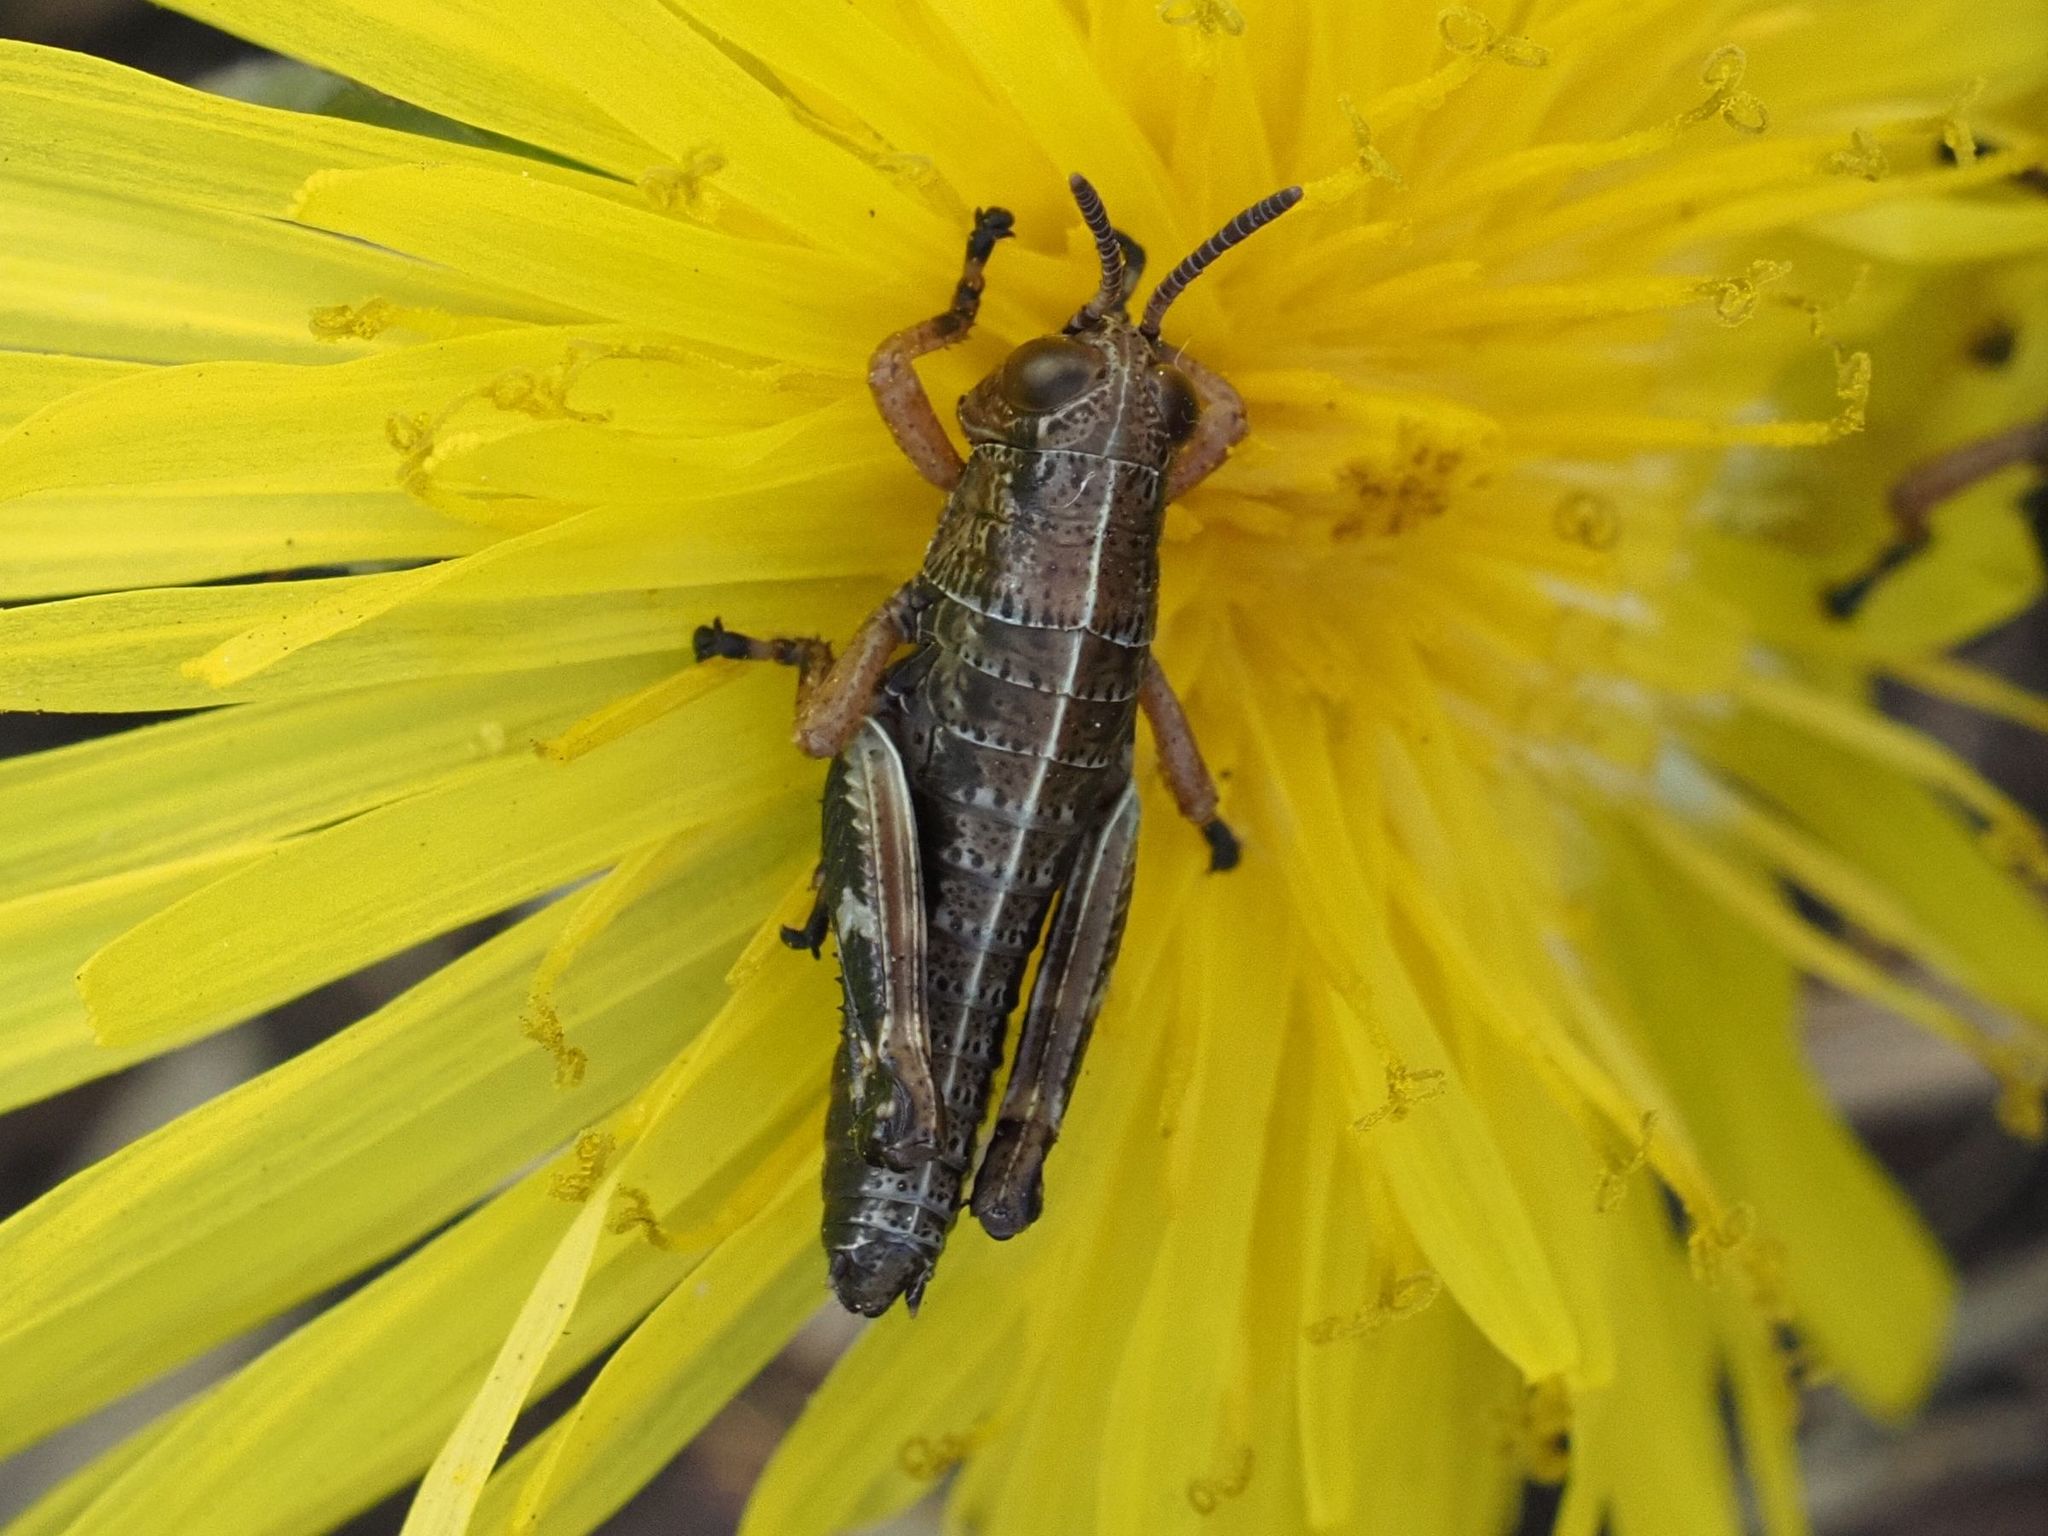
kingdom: Animalia
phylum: Arthropoda
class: Insecta
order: Orthoptera
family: Acrididae
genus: Miramella
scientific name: Miramella alpina
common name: Green mountain grasshopper
